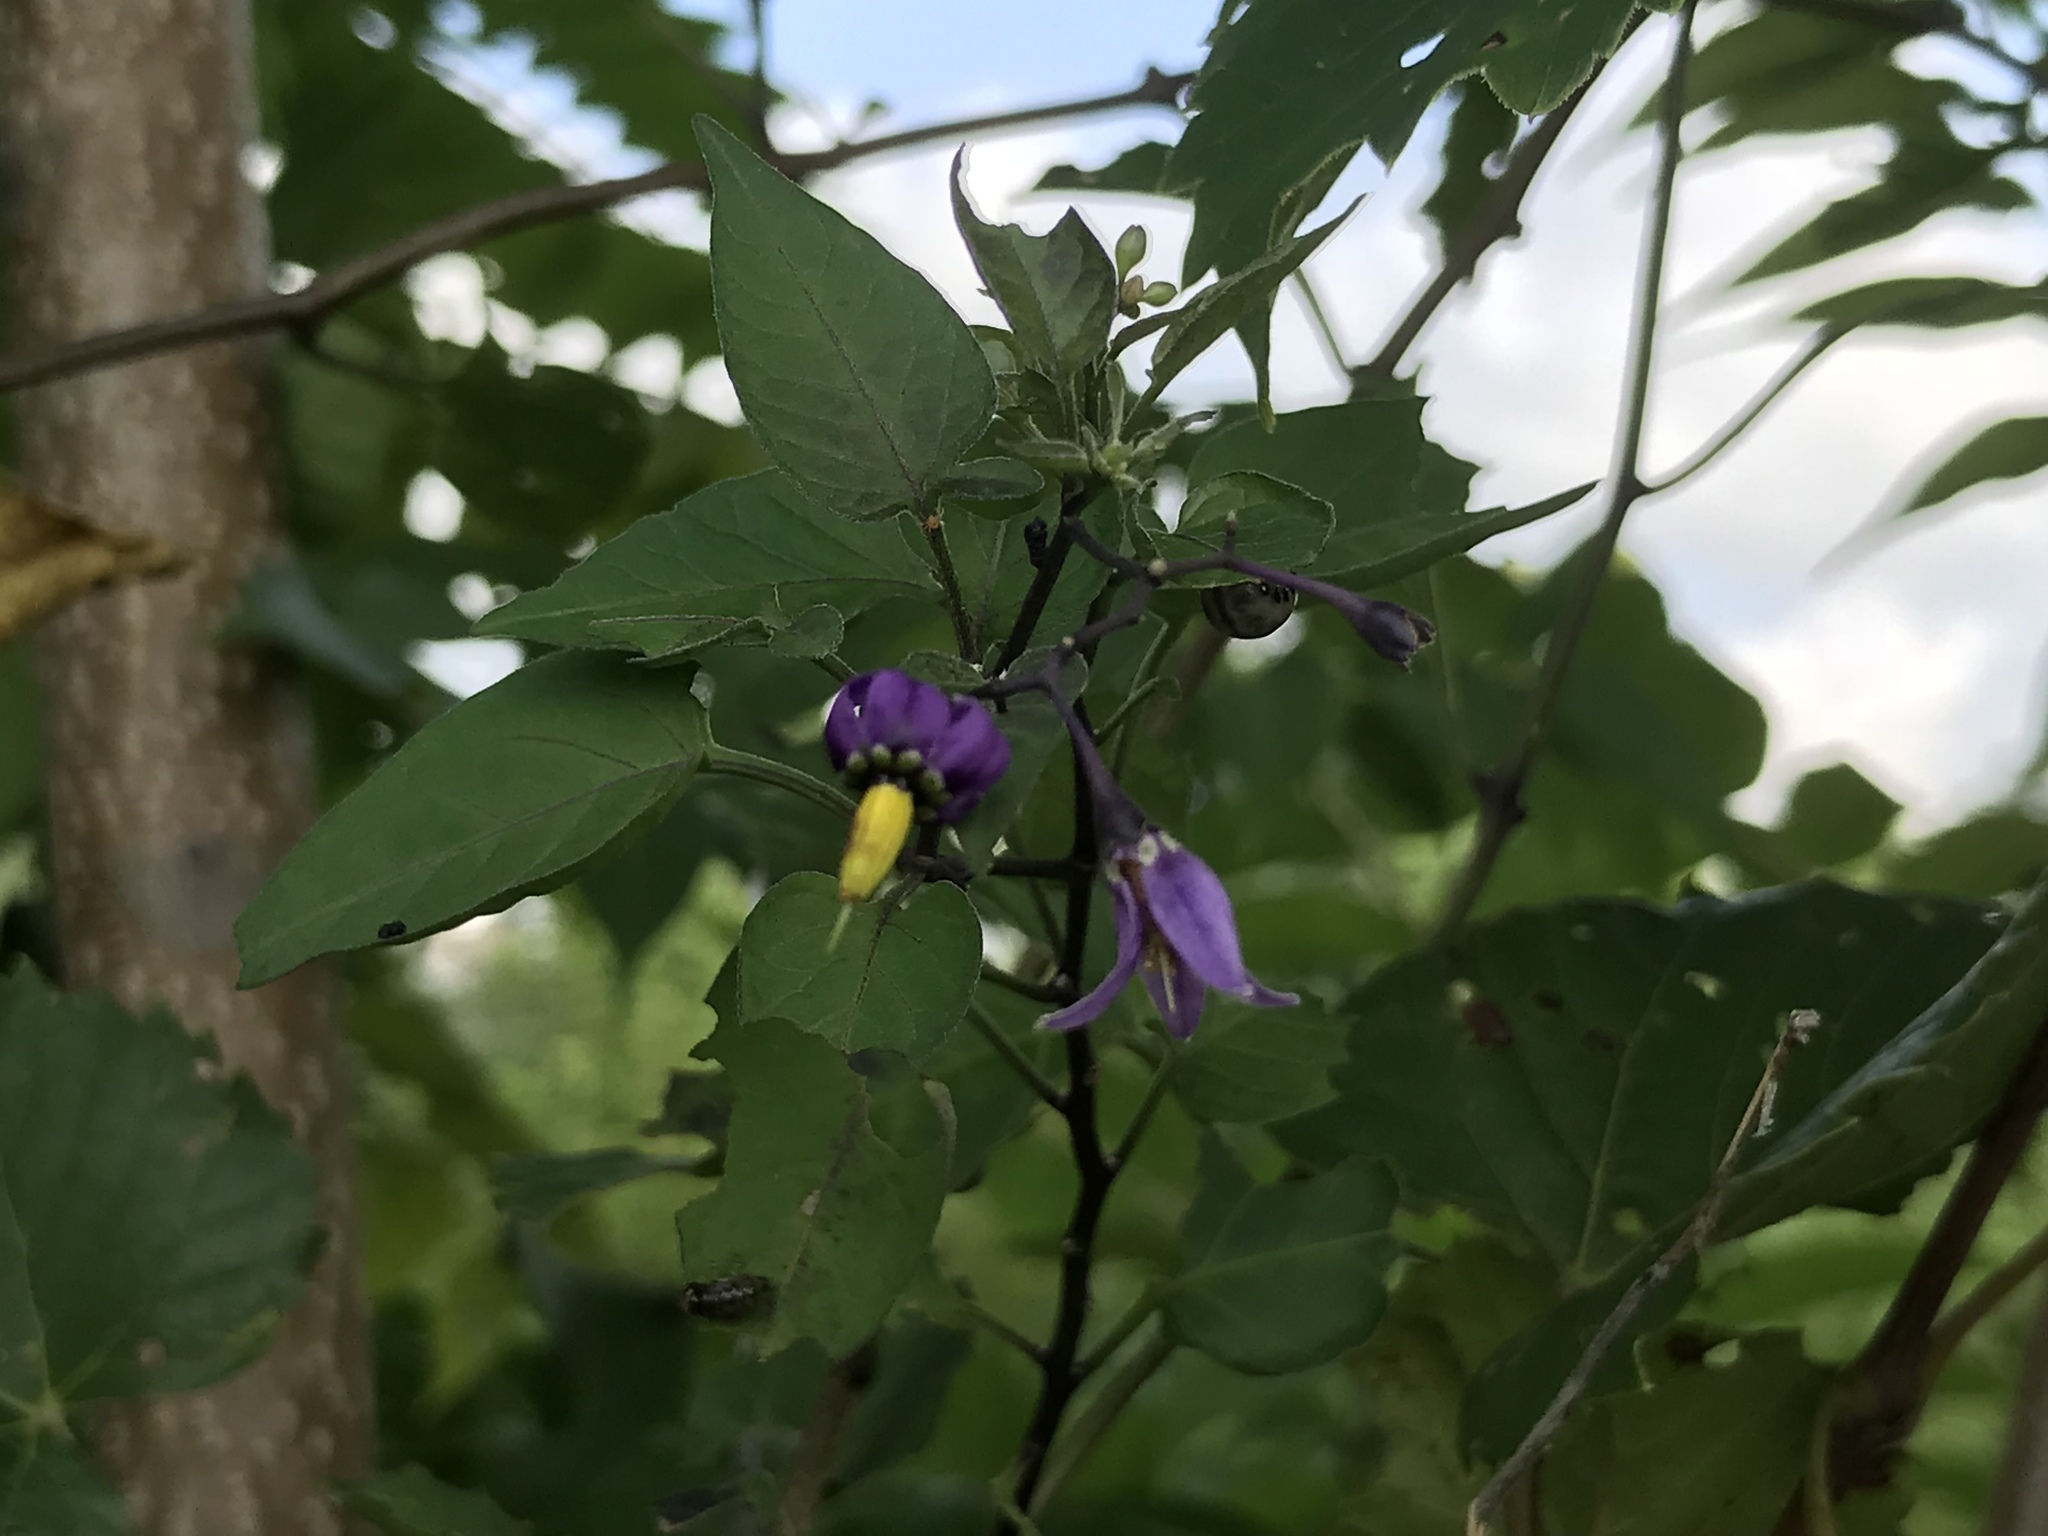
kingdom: Plantae
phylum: Tracheophyta
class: Magnoliopsida
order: Solanales
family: Solanaceae
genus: Solanum
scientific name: Solanum dulcamara
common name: Climbing nightshade
